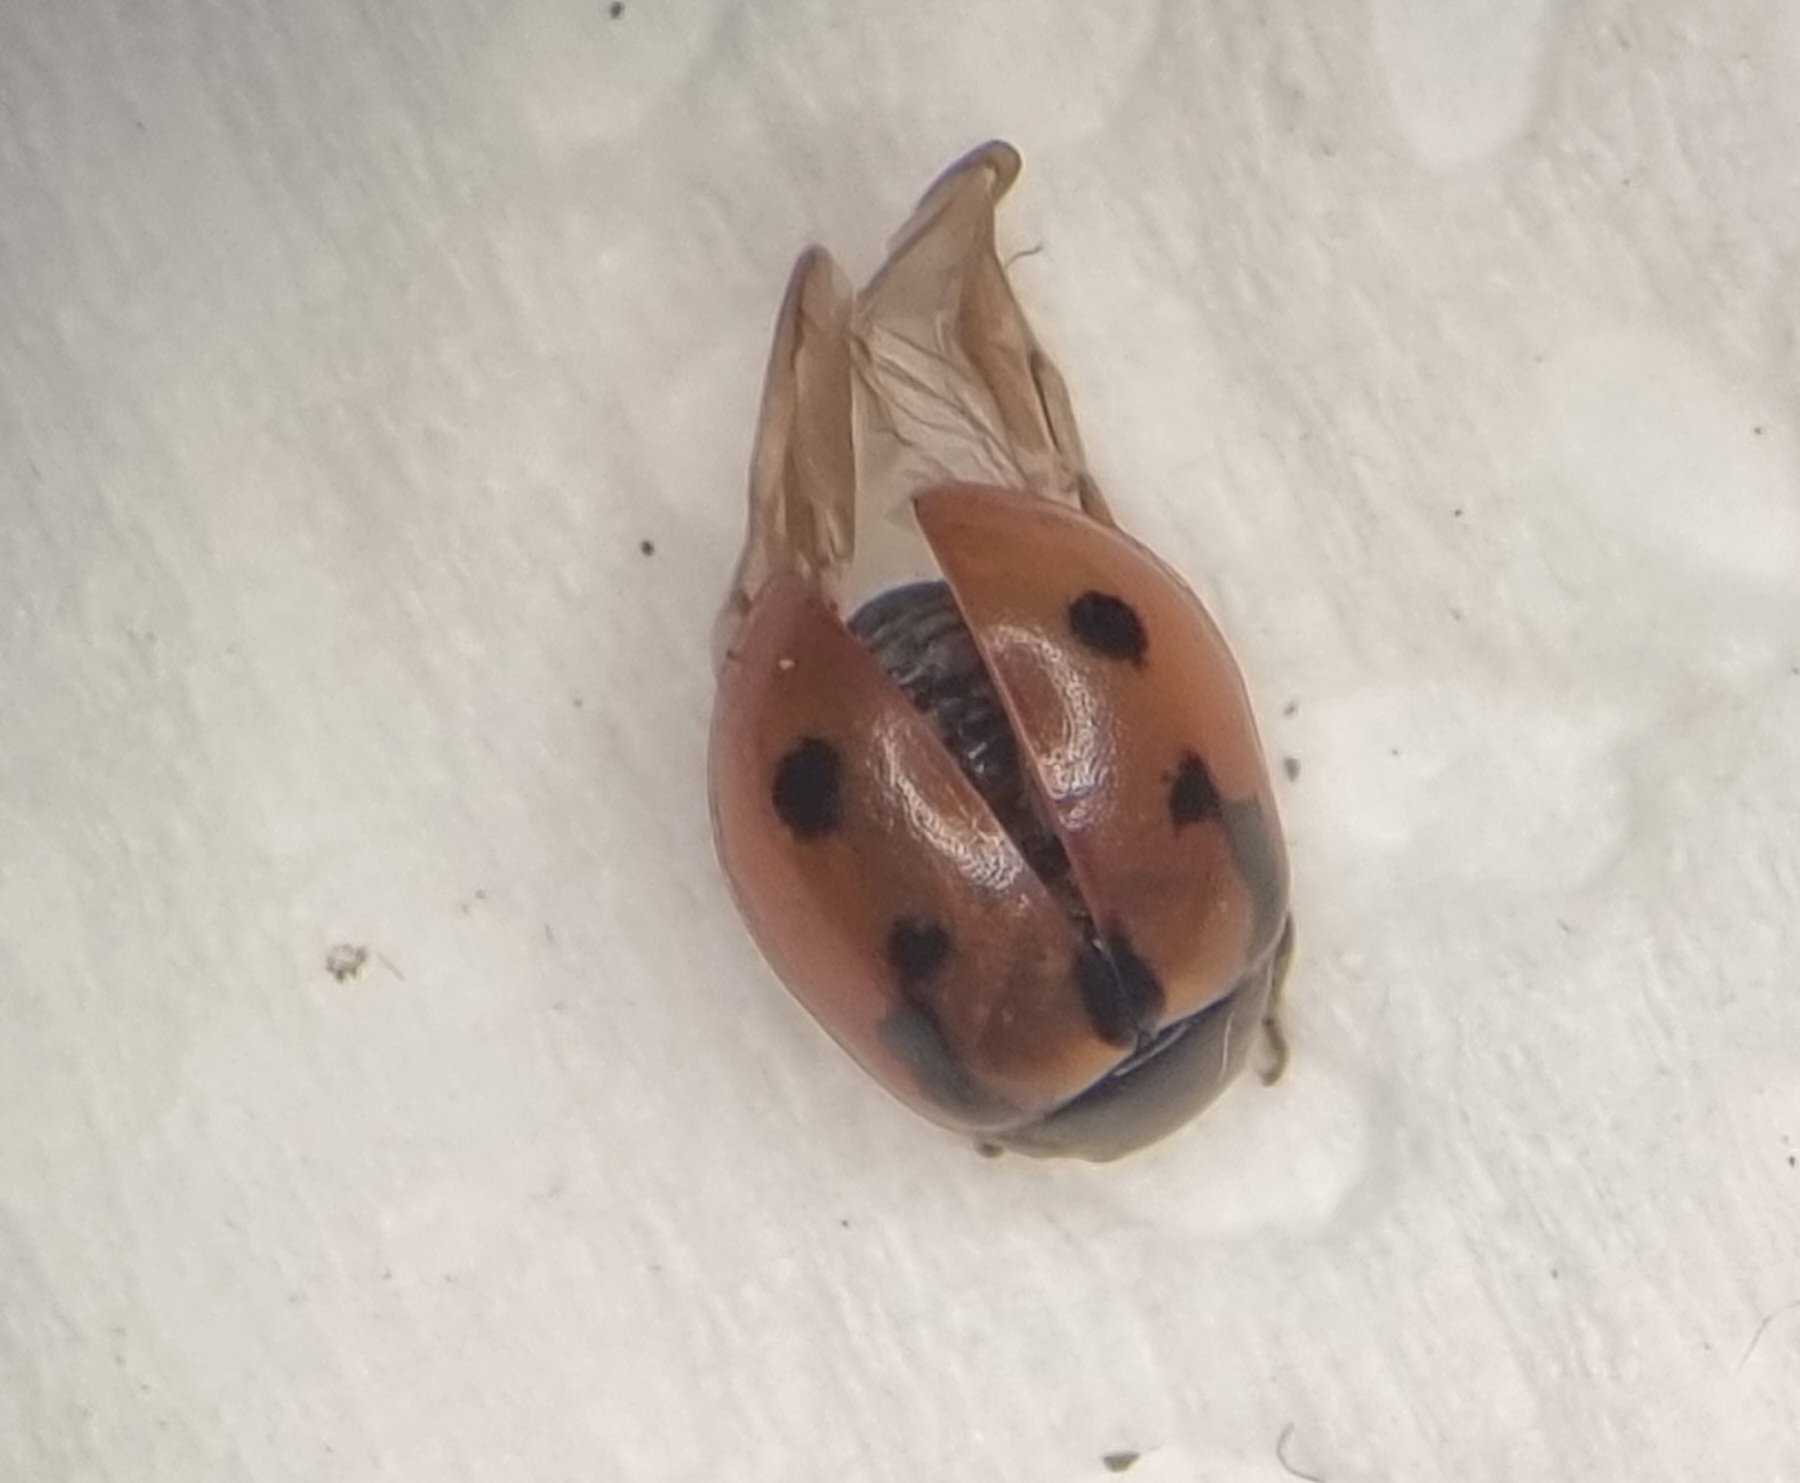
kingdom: Animalia
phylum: Arthropoda
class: Insecta
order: Coleoptera
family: Coccinellidae
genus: Coccinella
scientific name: Coccinella hieroglyphica
